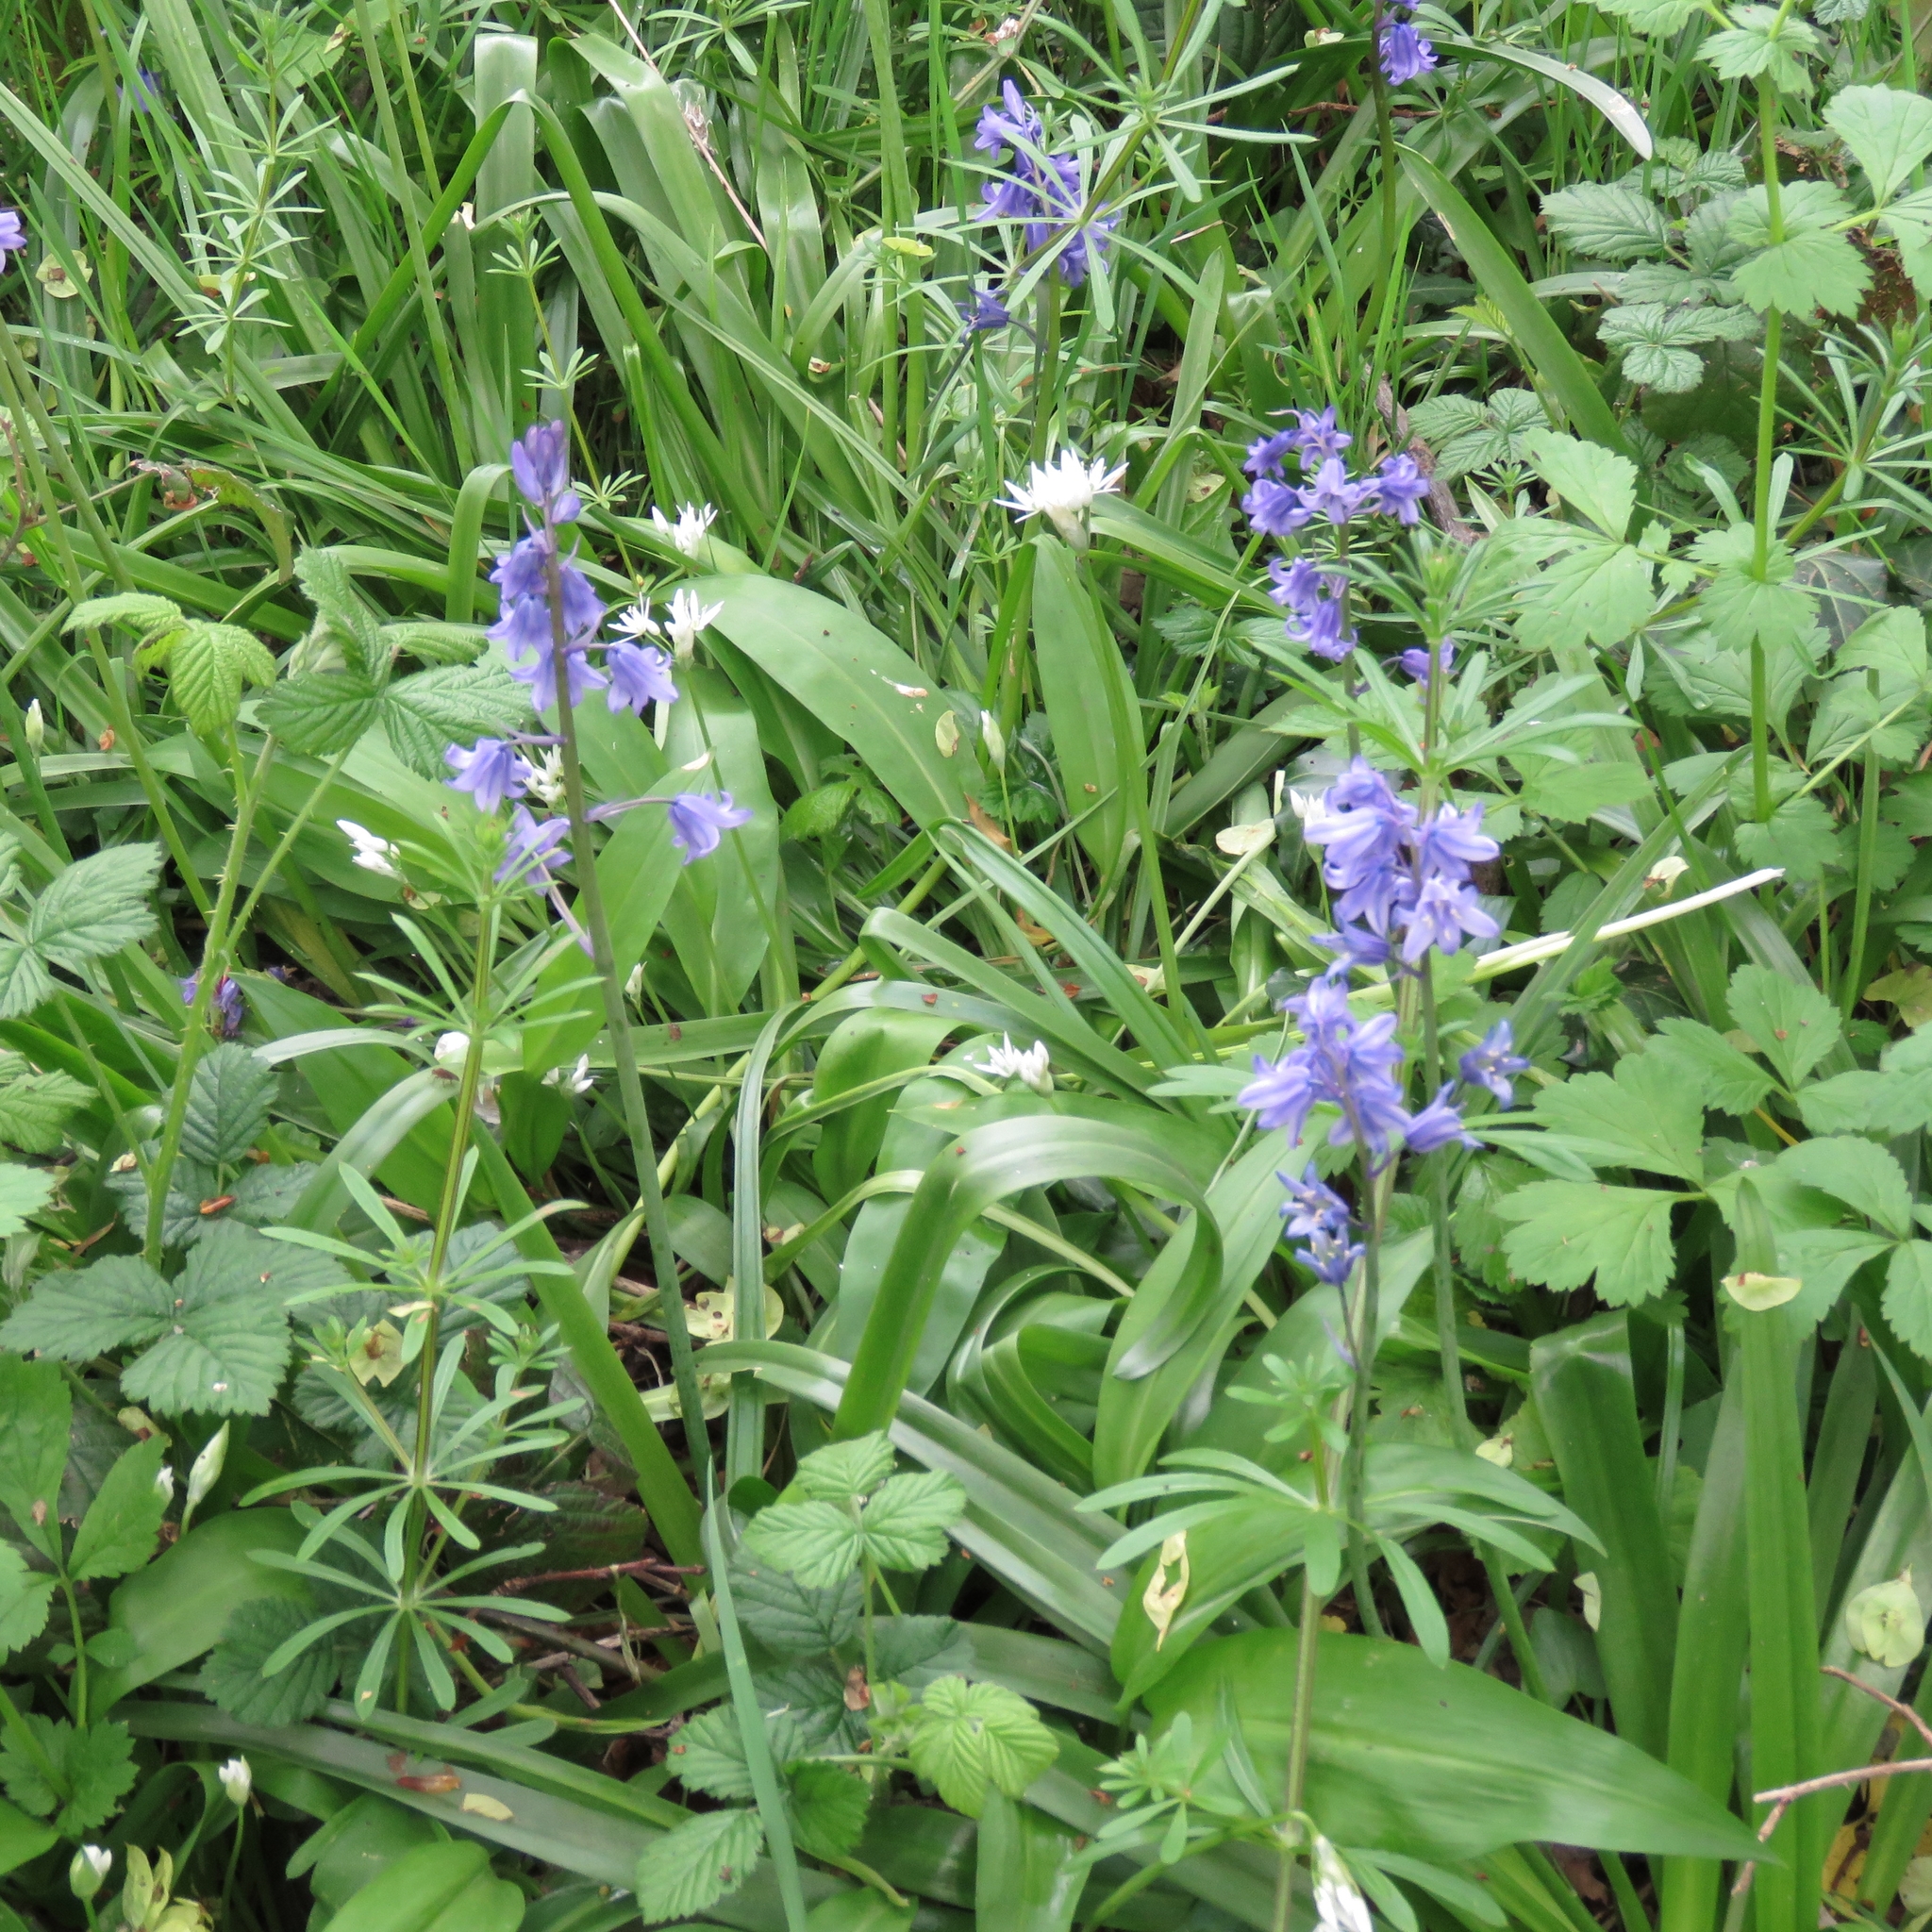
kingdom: Plantae
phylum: Tracheophyta
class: Liliopsida
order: Asparagales
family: Asparagaceae
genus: Hyacinthoides
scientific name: Hyacinthoides hispanica
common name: Spanish bluebell
